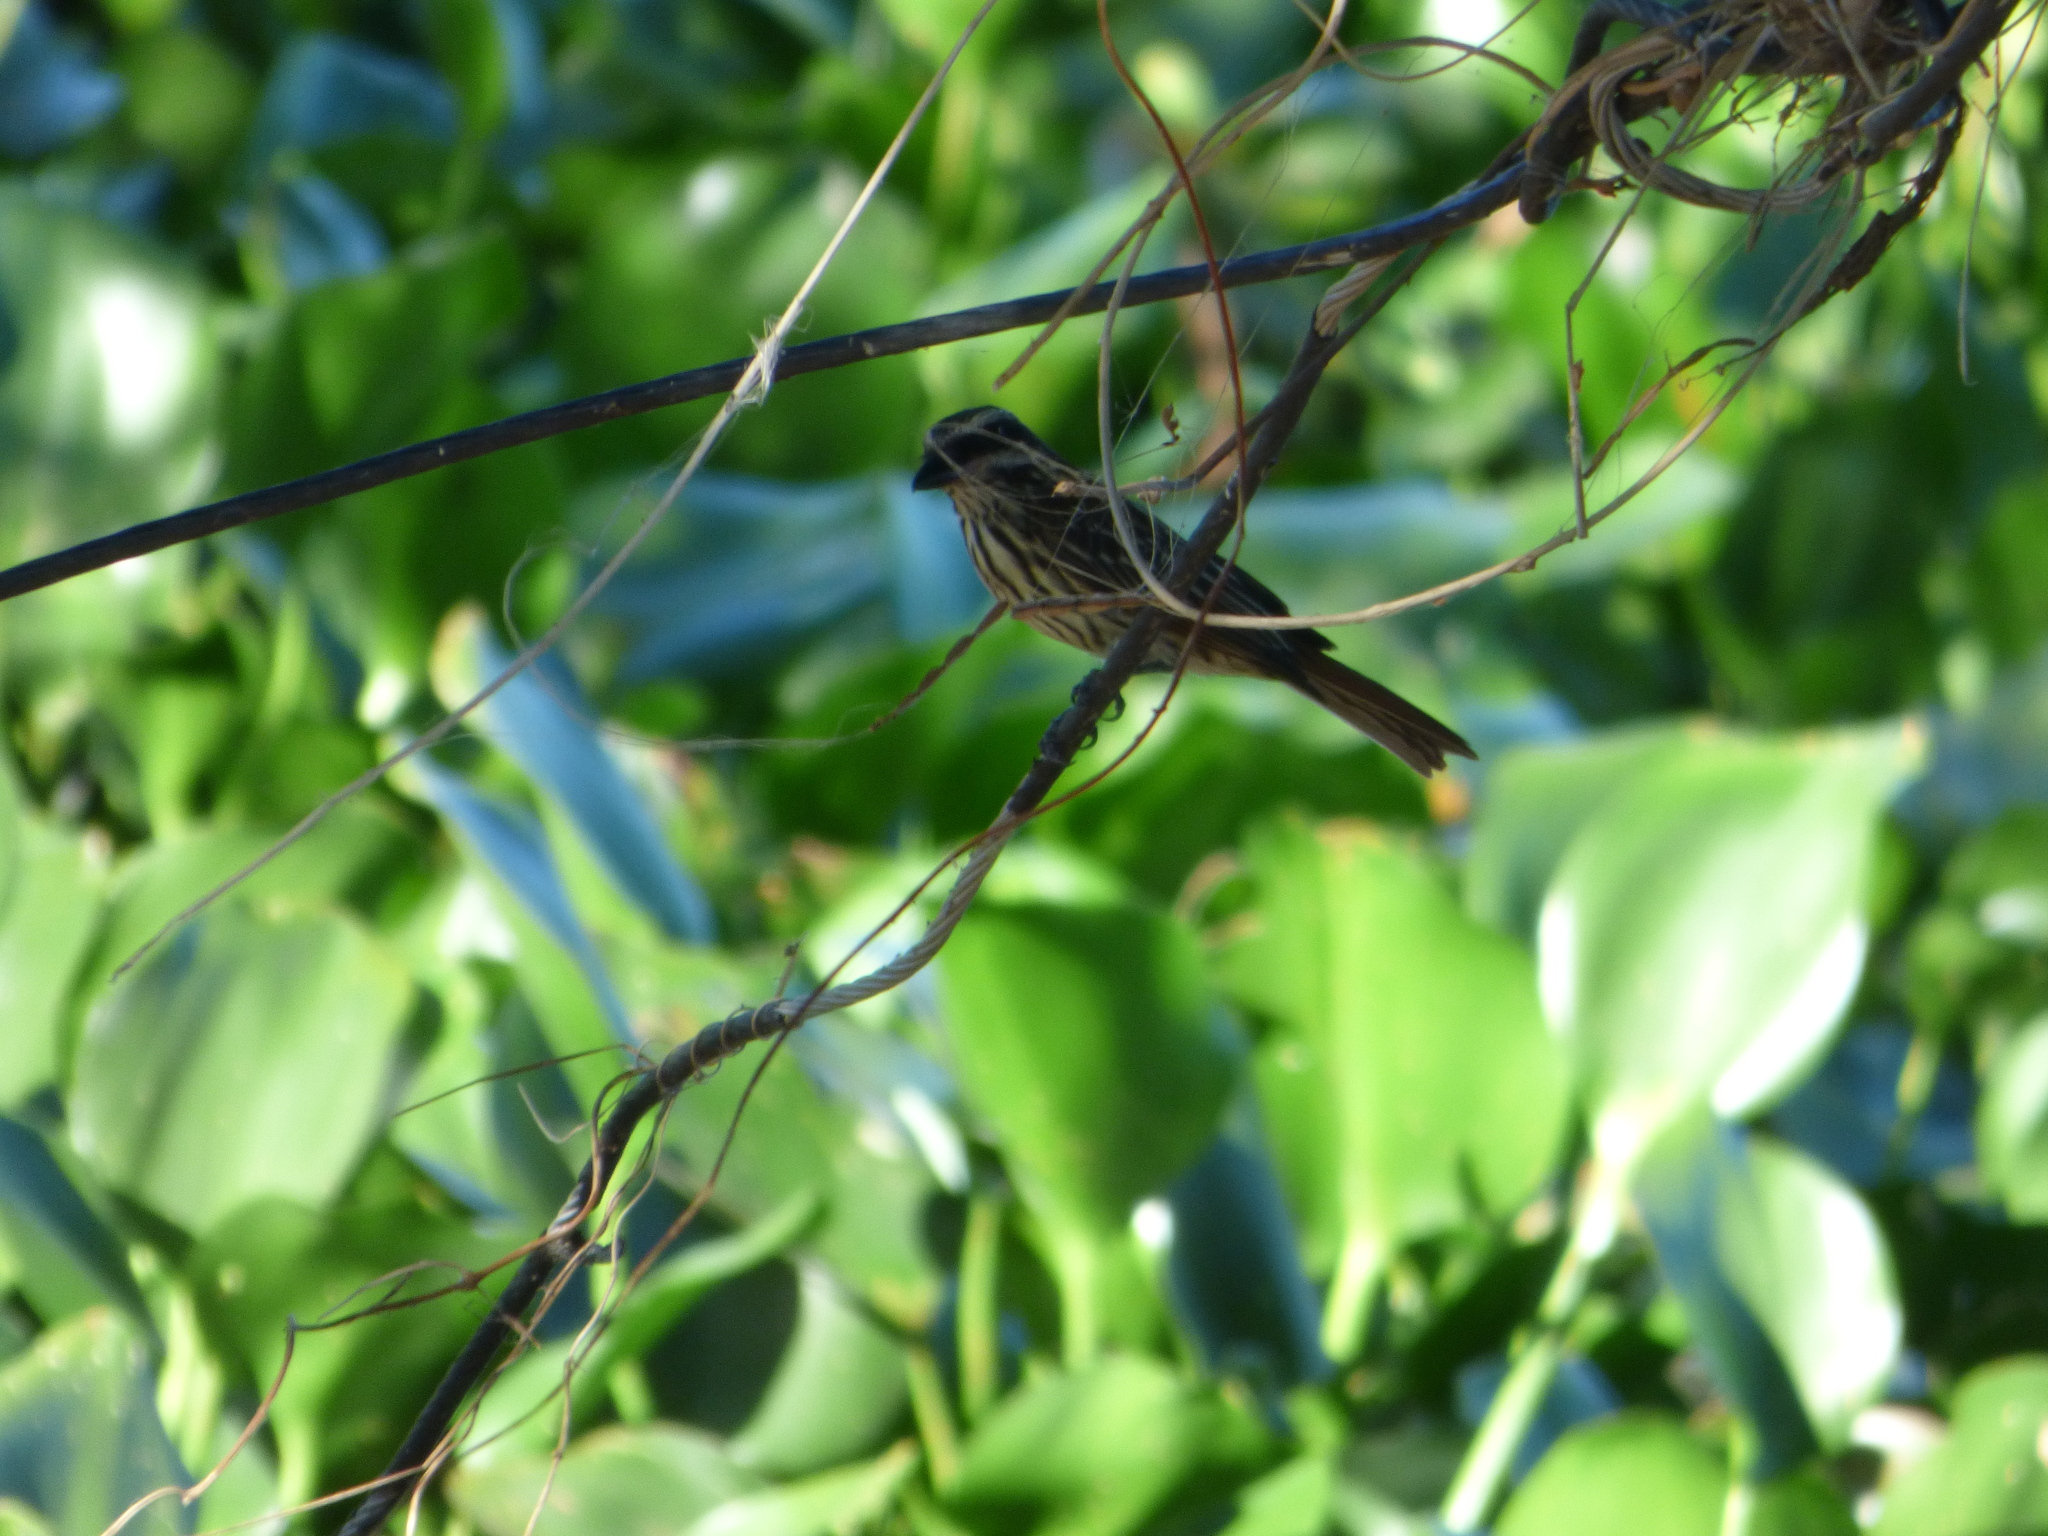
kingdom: Animalia
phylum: Chordata
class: Aves
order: Passeriformes
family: Tyrannidae
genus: Myiodynastes
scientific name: Myiodynastes maculatus
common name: Streaked flycatcher
